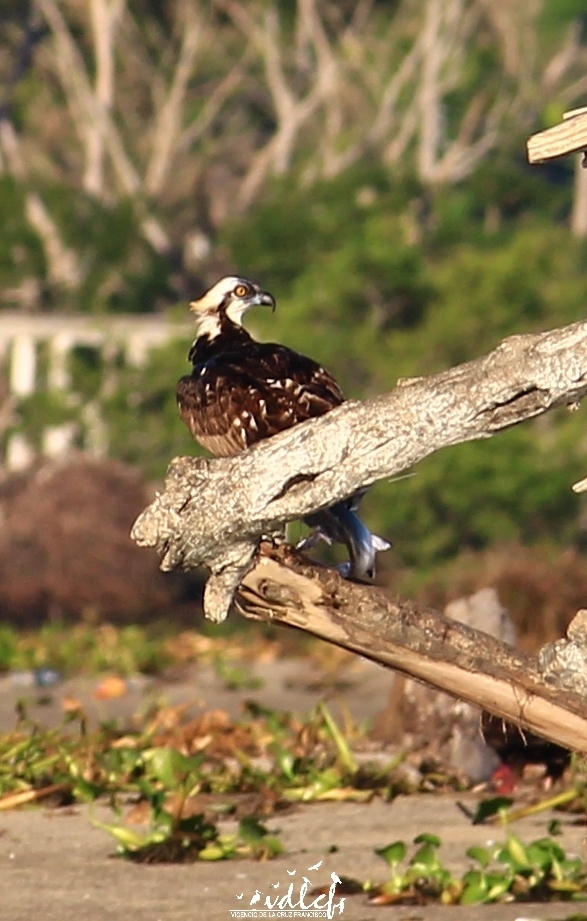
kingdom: Animalia
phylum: Chordata
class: Aves
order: Accipitriformes
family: Pandionidae
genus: Pandion
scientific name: Pandion haliaetus
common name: Osprey
